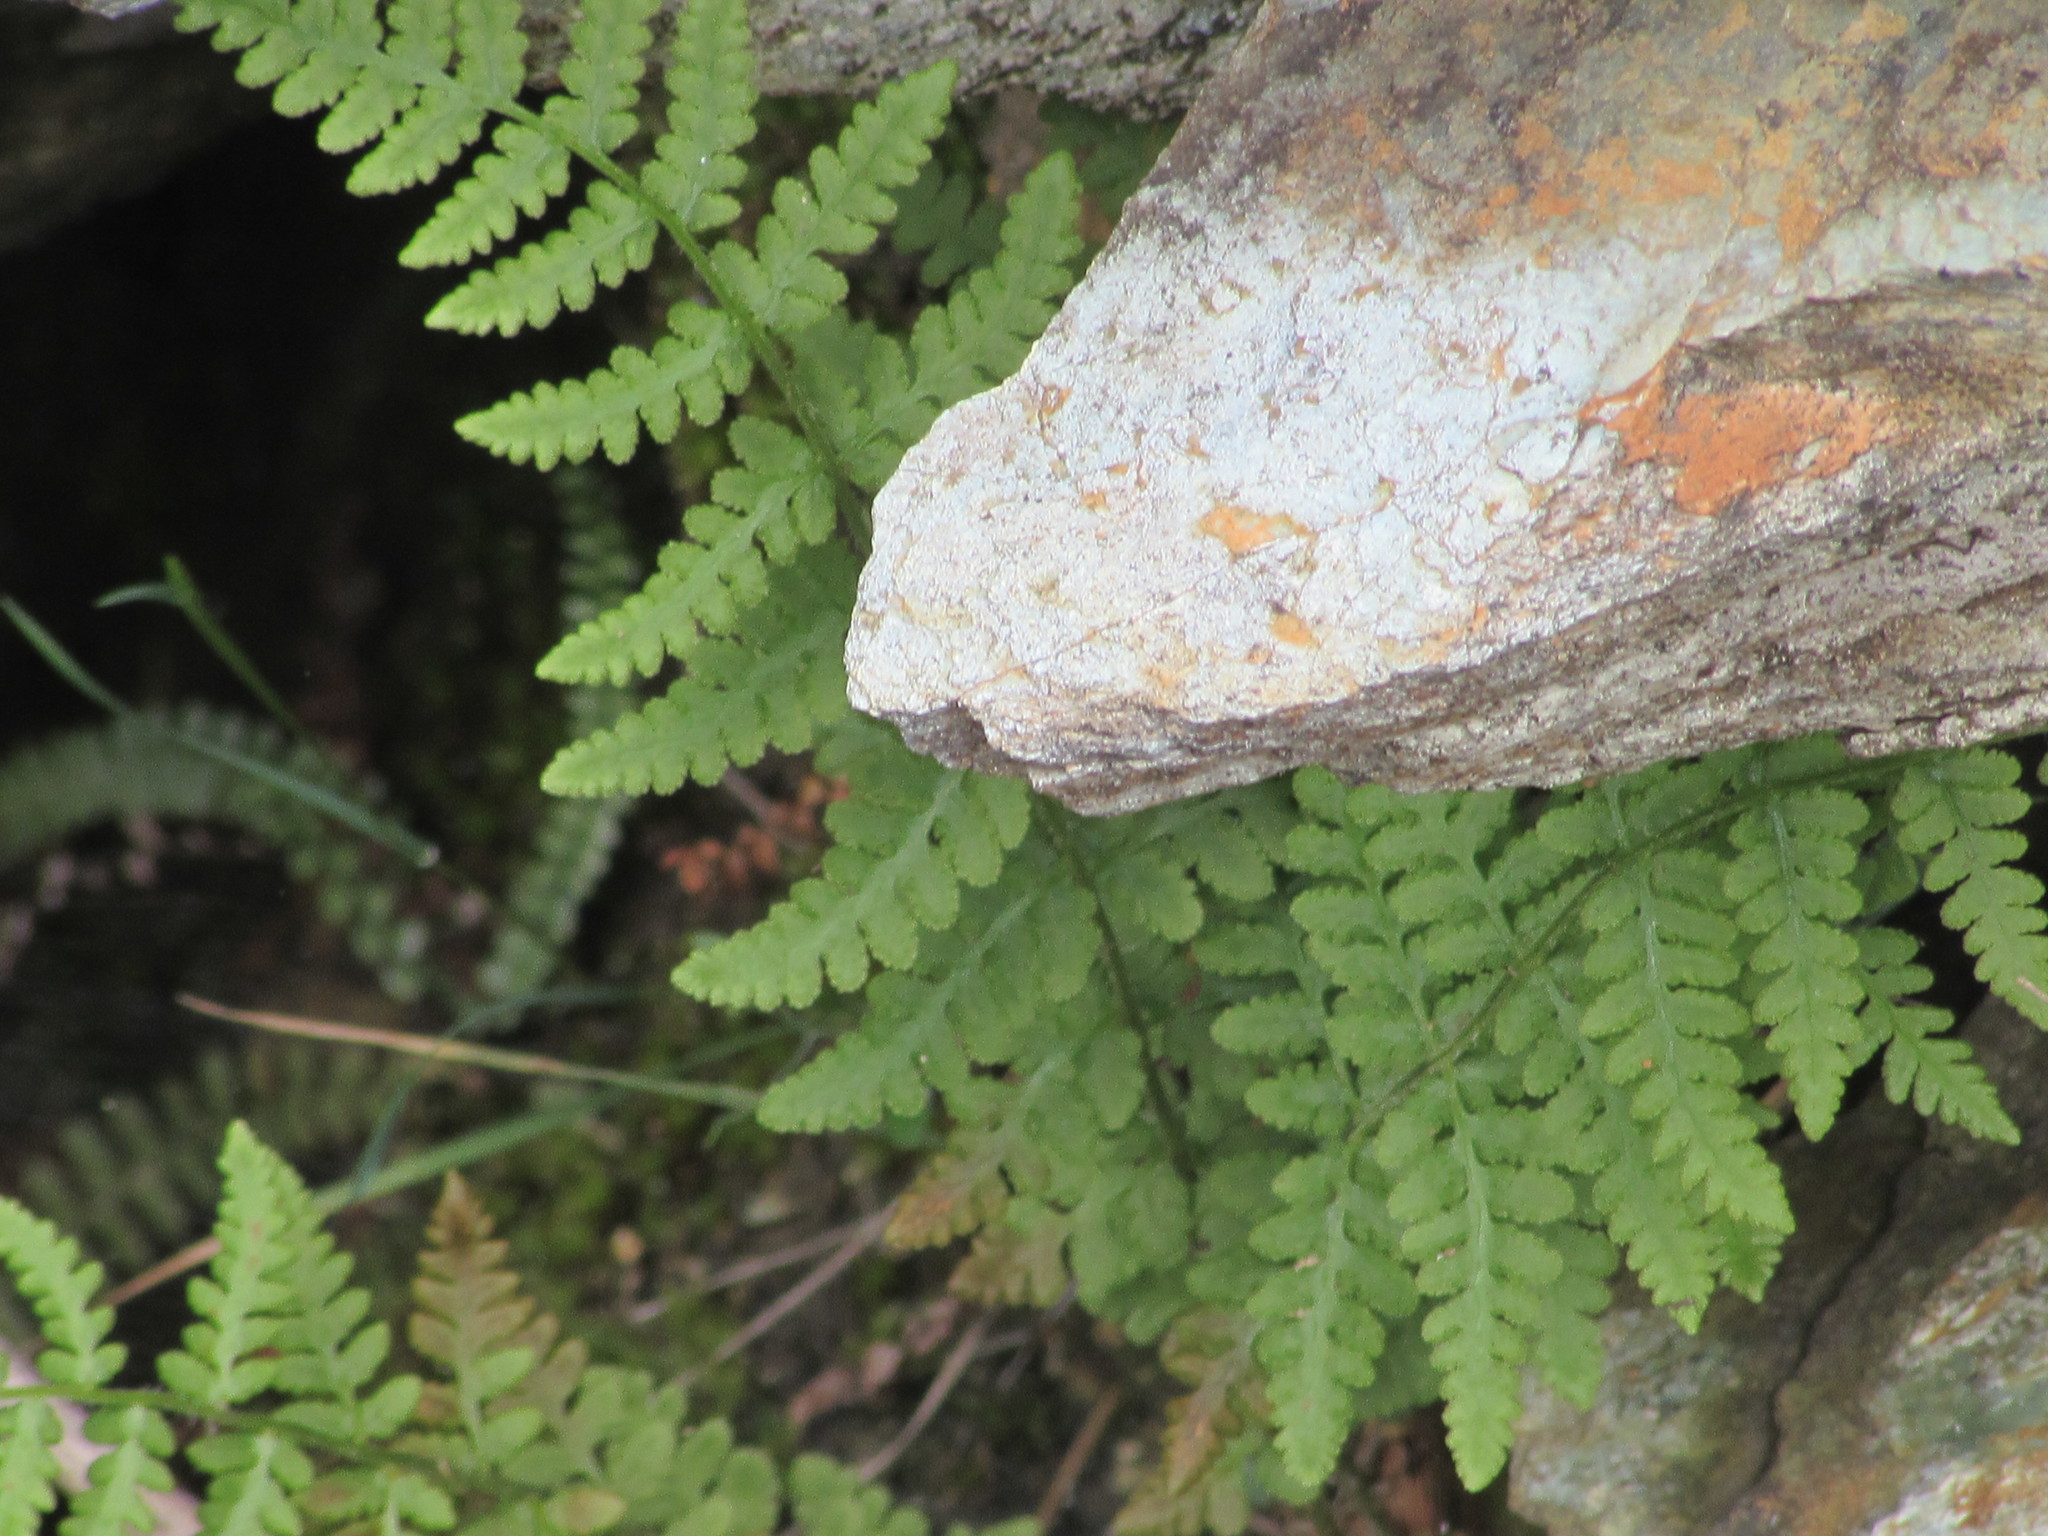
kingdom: Plantae
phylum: Tracheophyta
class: Polypodiopsida
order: Polypodiales
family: Woodsiaceae
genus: Physematium
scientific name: Physematium obtusum
